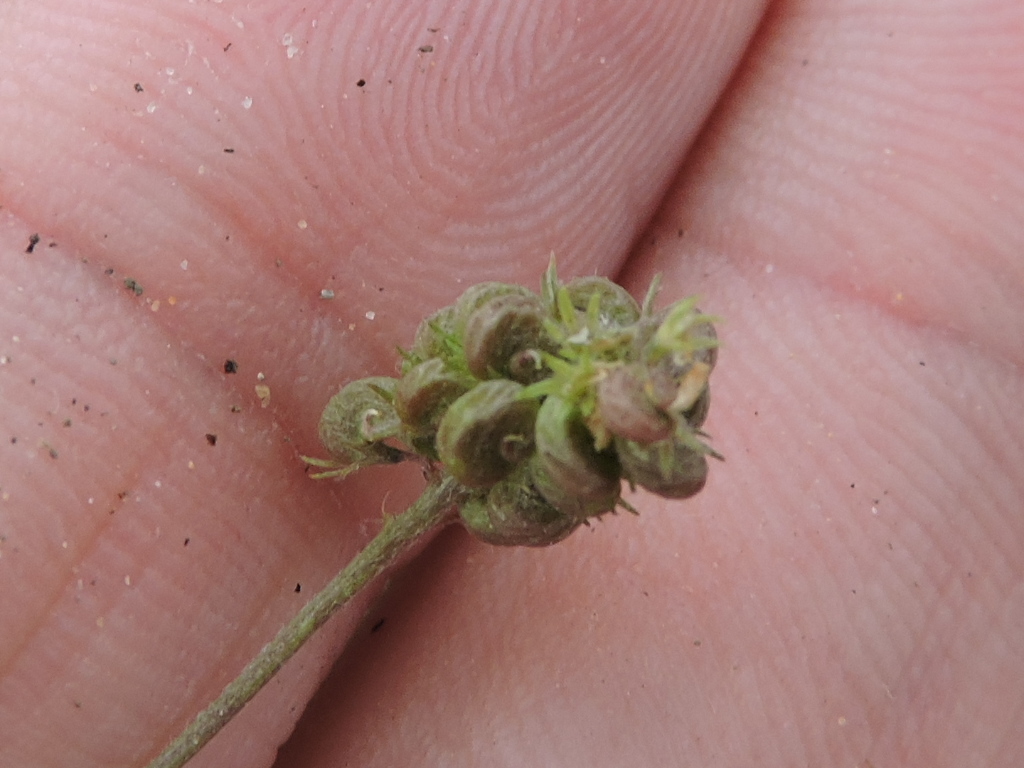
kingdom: Plantae
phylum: Tracheophyta
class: Magnoliopsida
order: Fabales
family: Fabaceae
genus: Medicago
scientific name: Medicago lupulina
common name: Black medick
